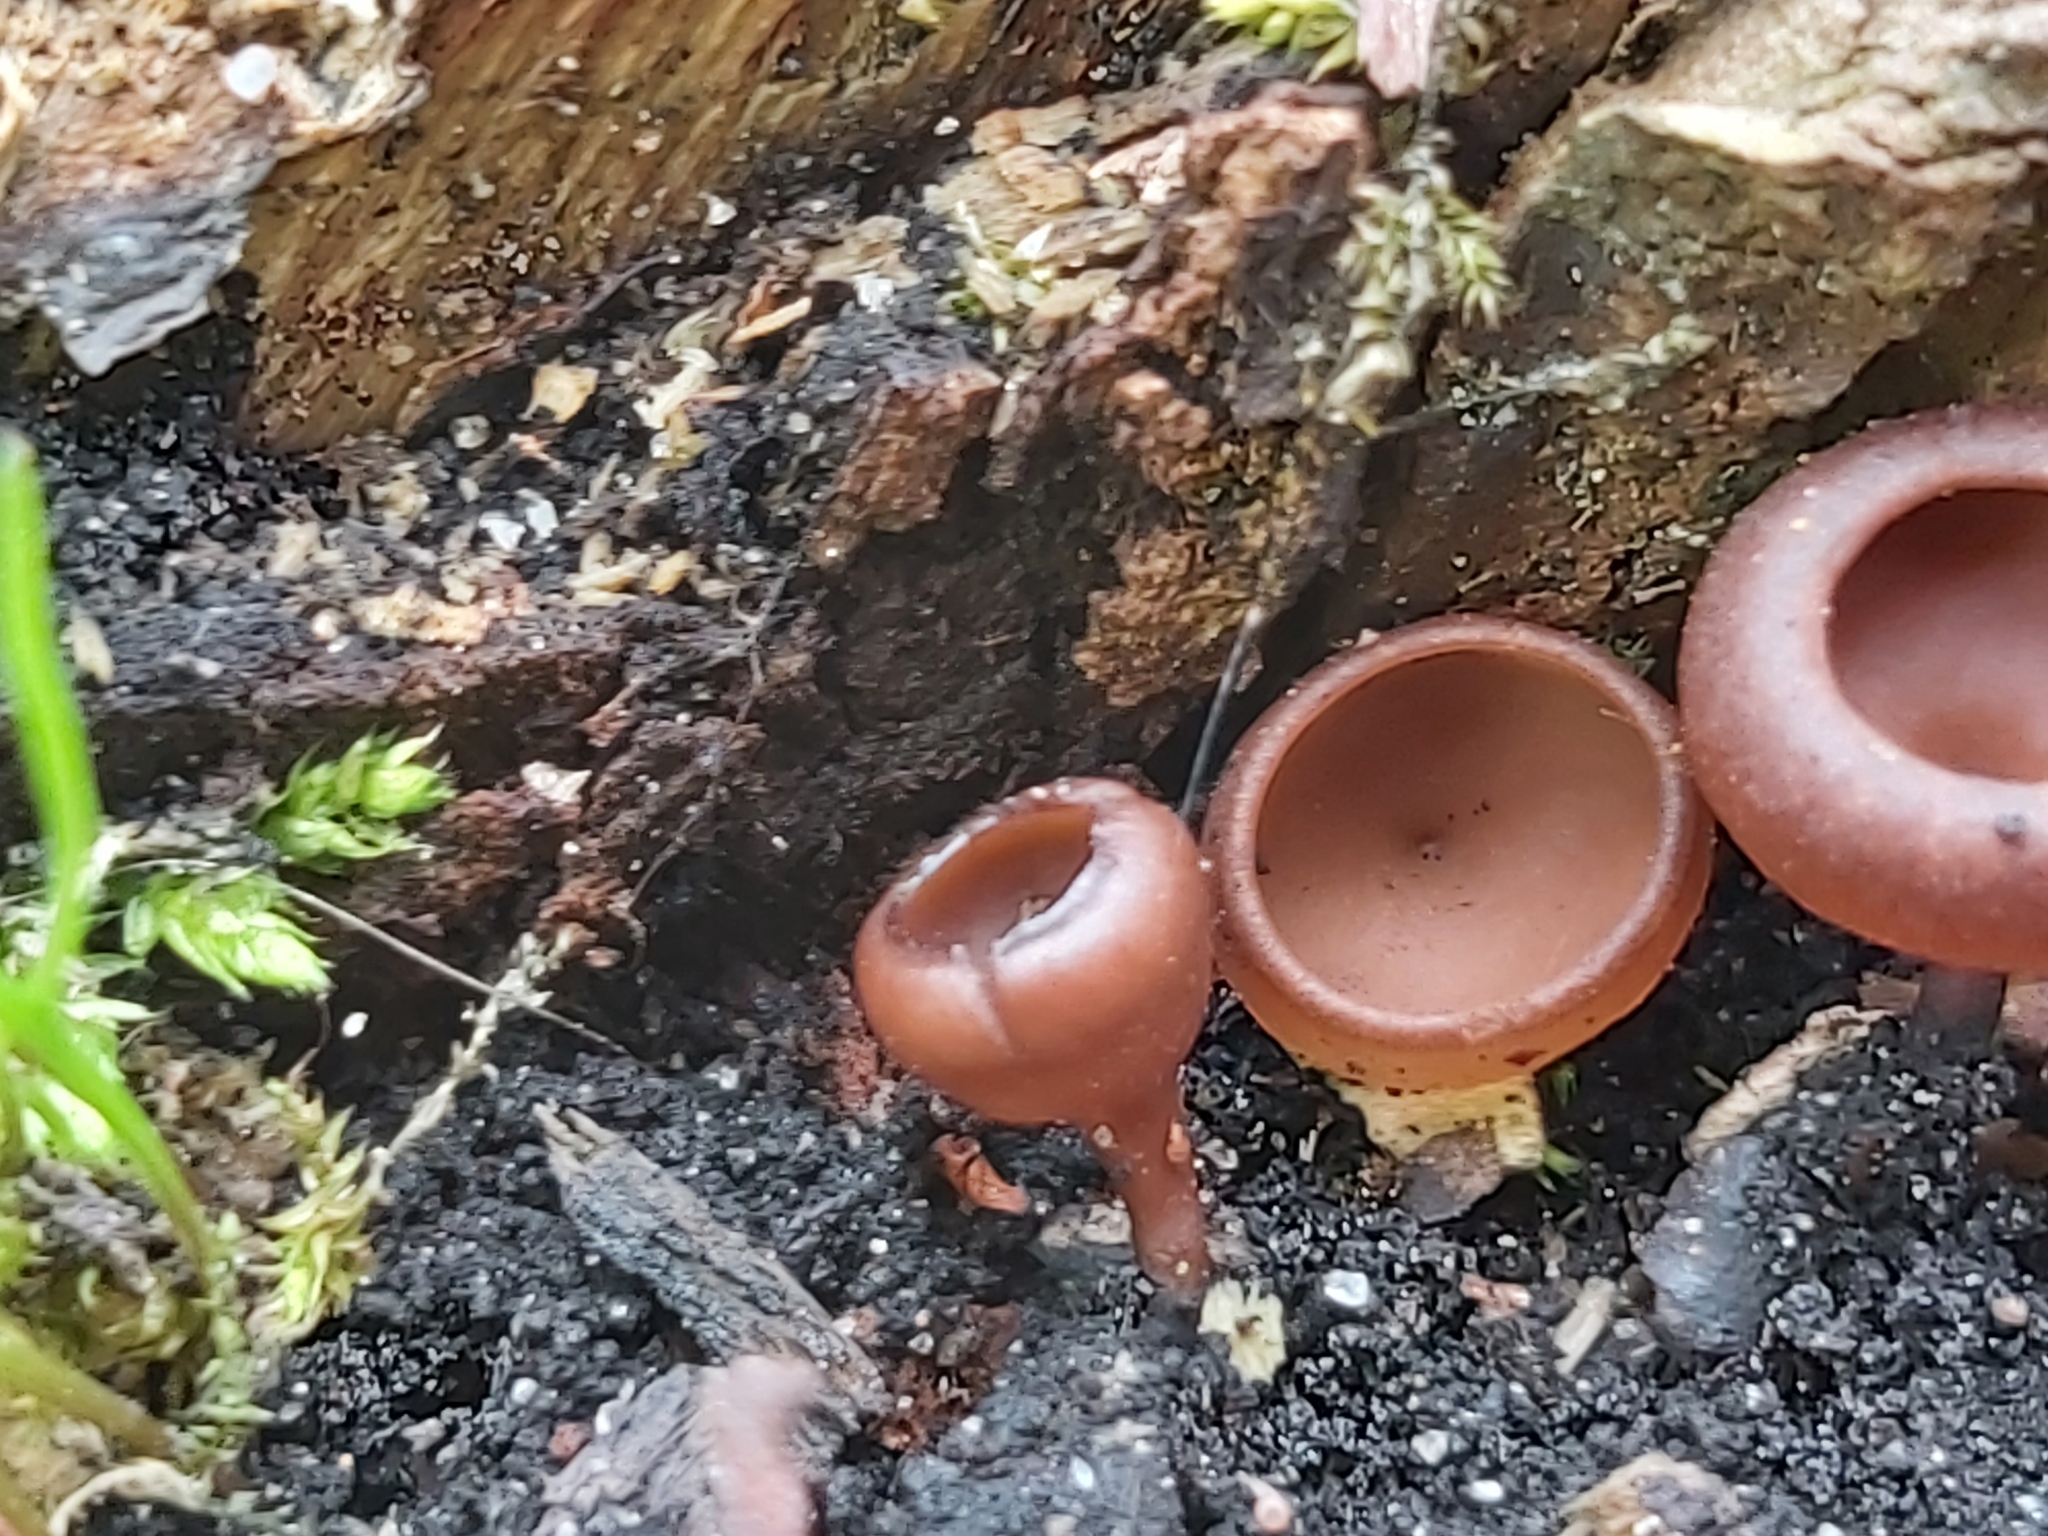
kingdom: Fungi
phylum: Ascomycota
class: Leotiomycetes
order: Helotiales
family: Sclerotiniaceae
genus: Dumontinia
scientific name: Dumontinia tuberosa
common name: Anemone cup
